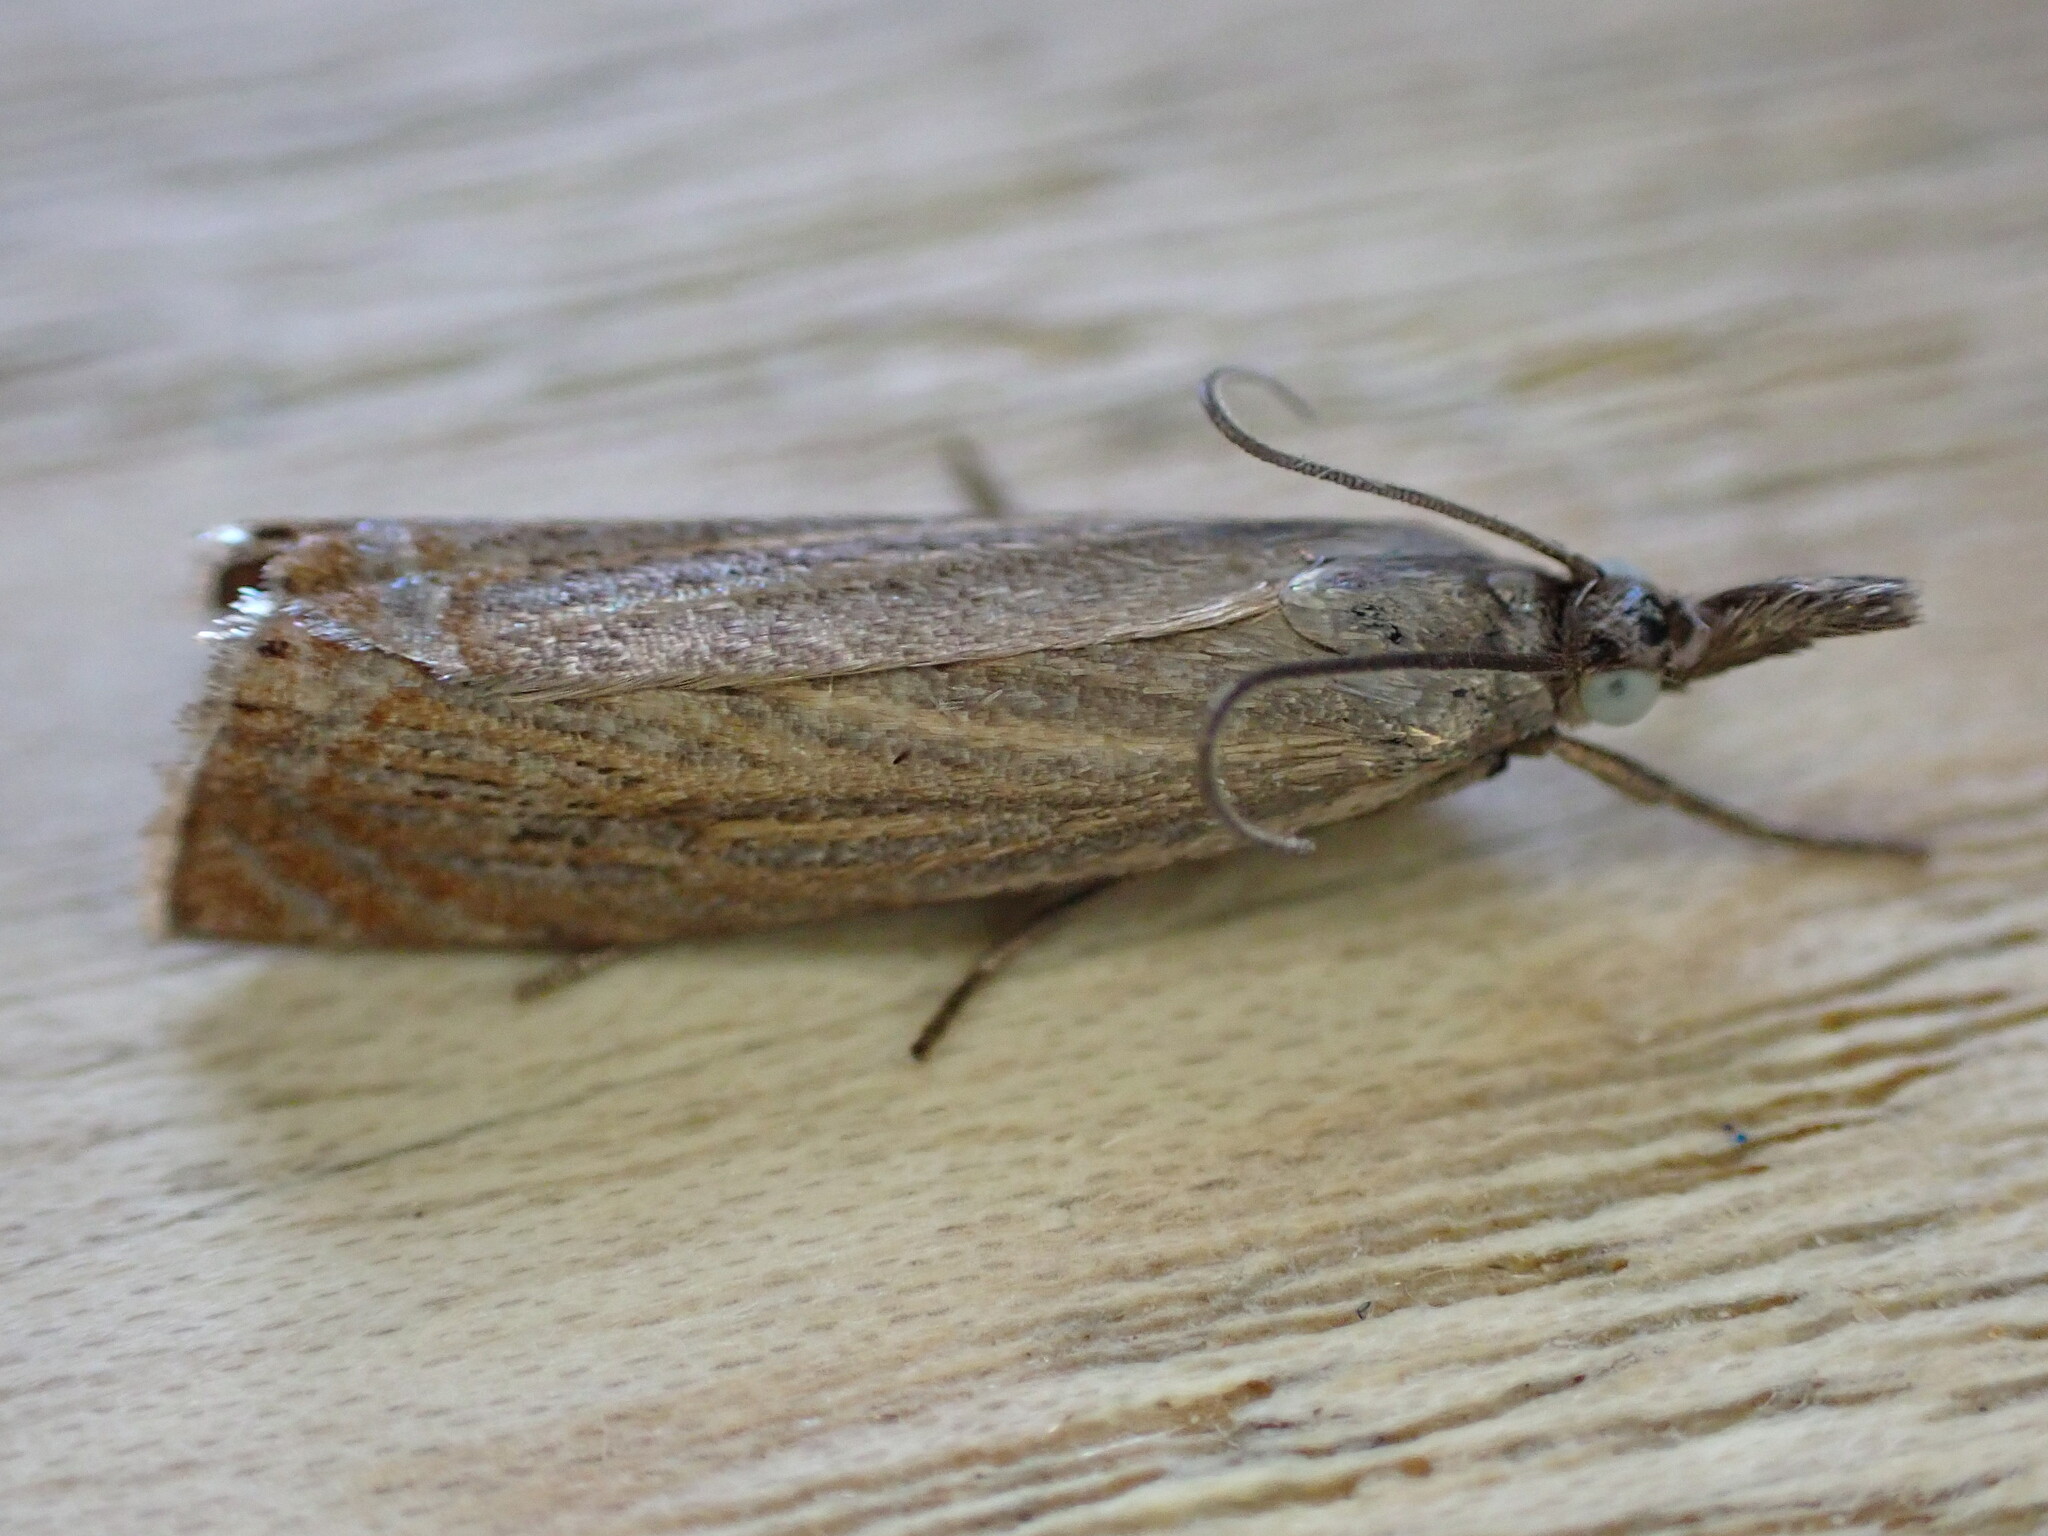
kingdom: Animalia
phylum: Arthropoda
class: Insecta
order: Lepidoptera
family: Crambidae
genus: Chrysoteuchia
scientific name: Chrysoteuchia culmella
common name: Garden grass-veneer
